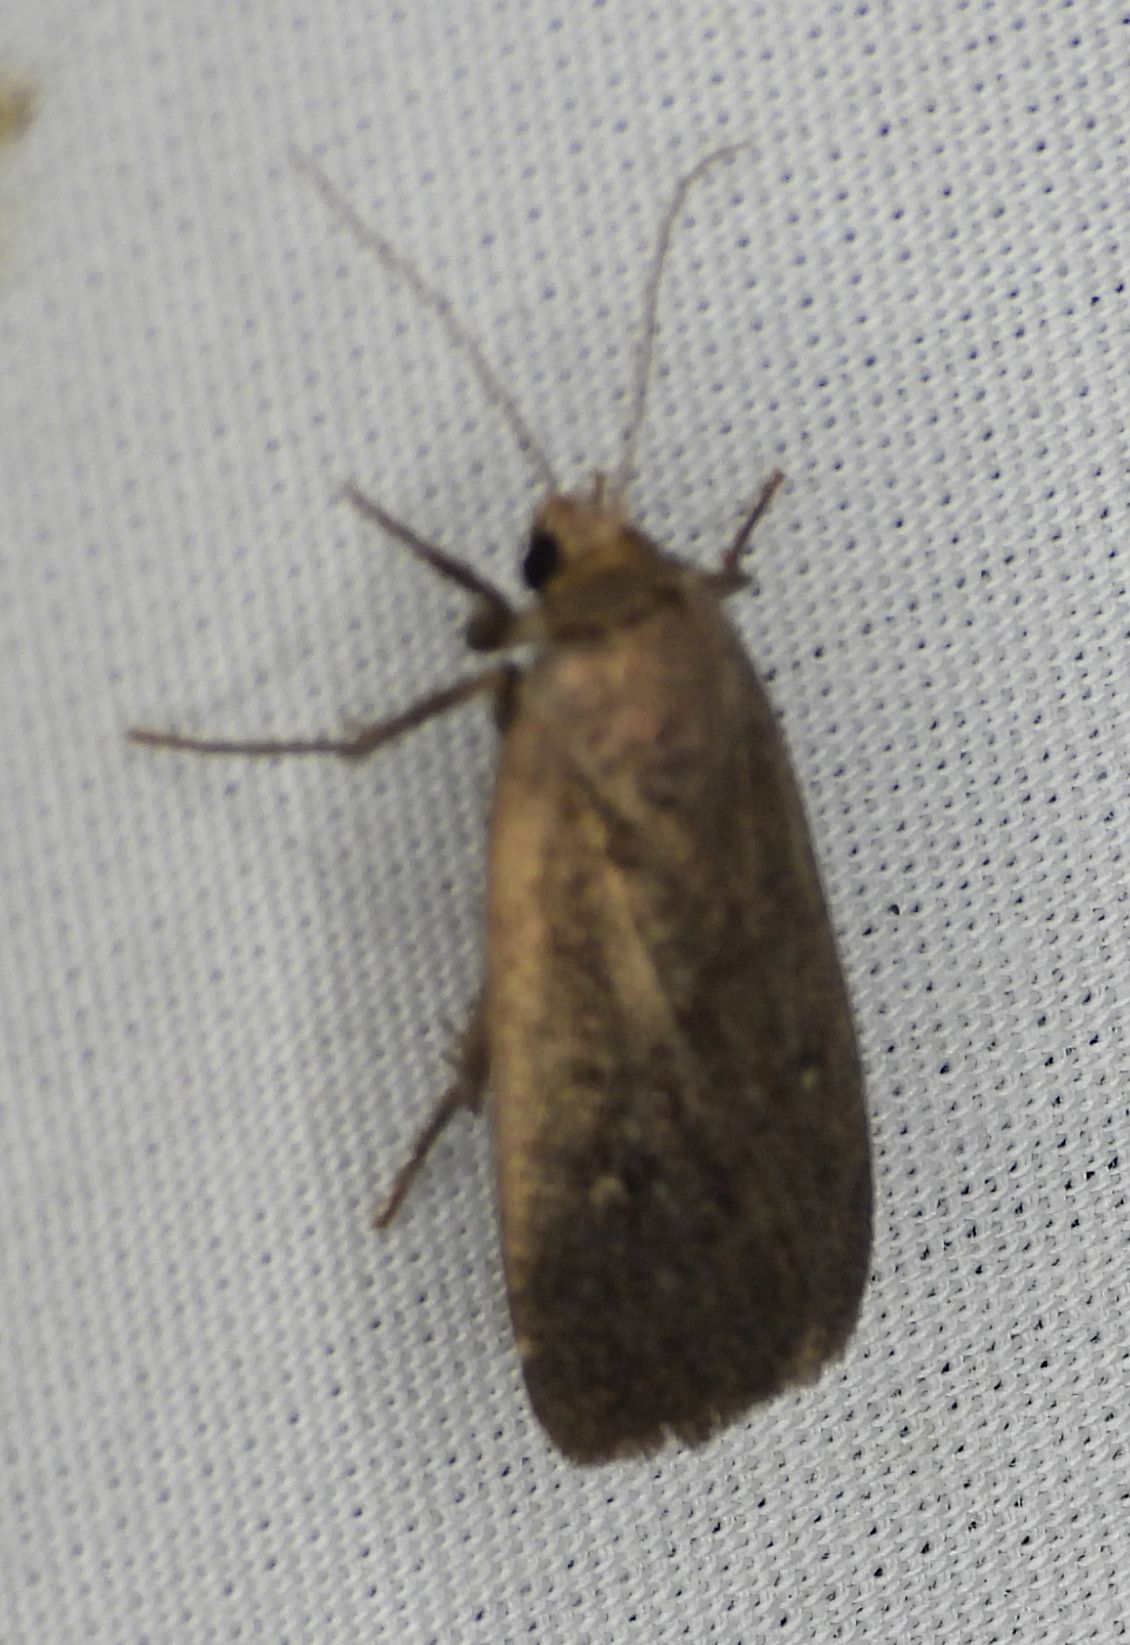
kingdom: Animalia
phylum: Arthropoda
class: Insecta
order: Lepidoptera
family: Noctuidae
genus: Proxenus
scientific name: Proxenus miranda
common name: Miranda moth
